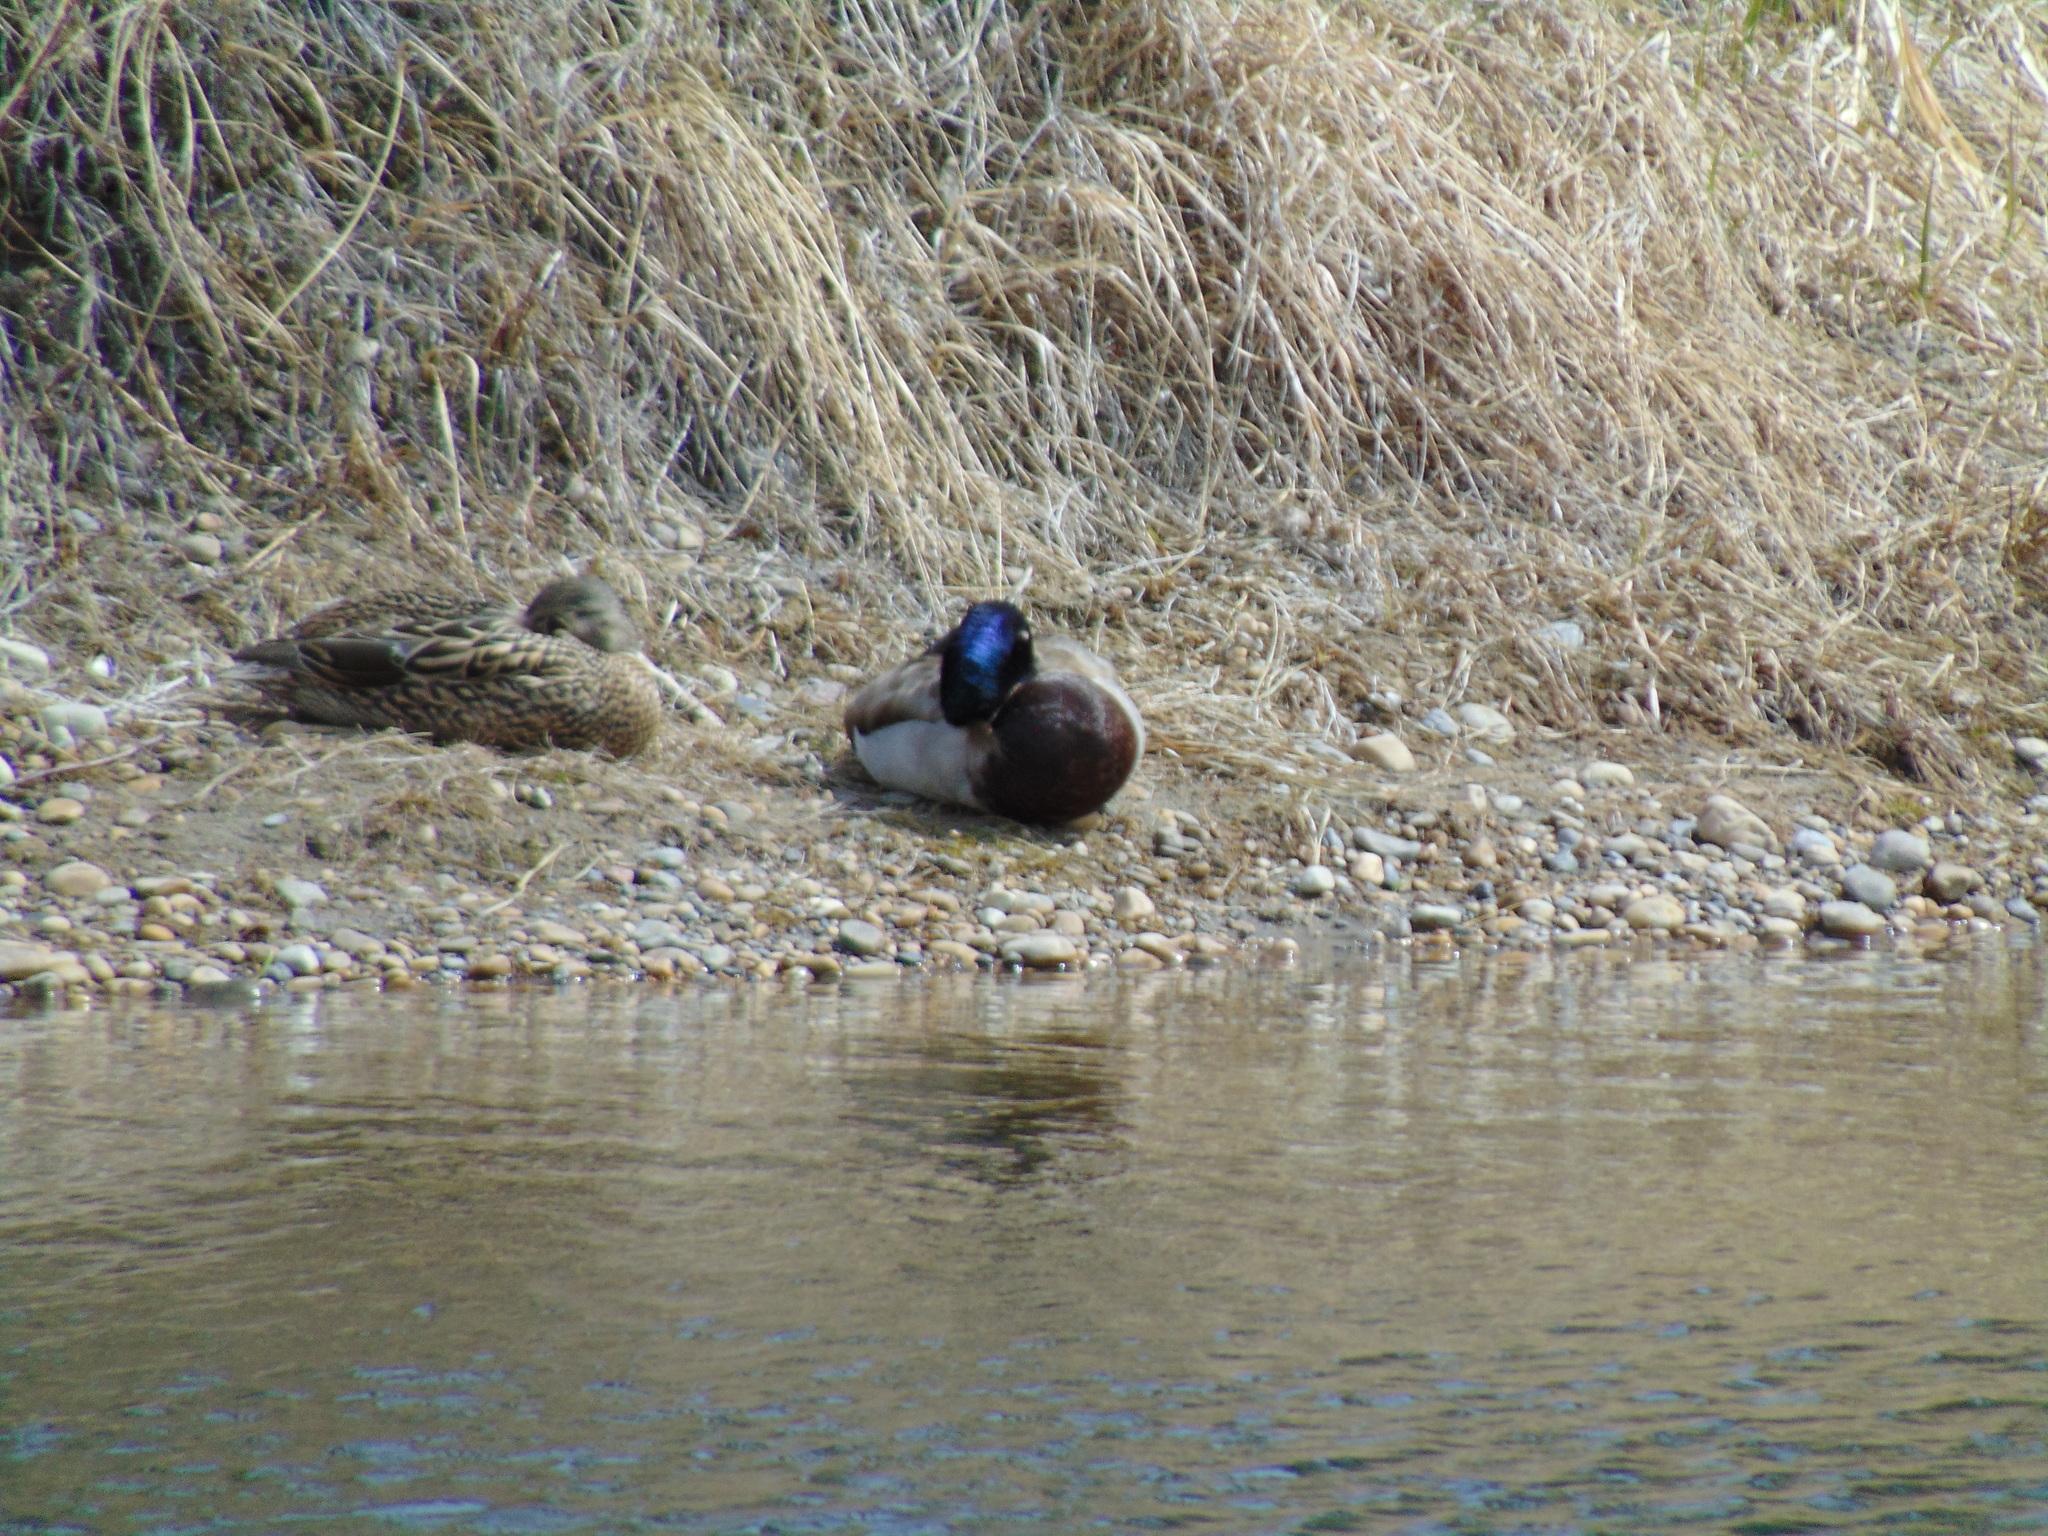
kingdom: Animalia
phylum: Chordata
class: Aves
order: Anseriformes
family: Anatidae
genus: Anas
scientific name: Anas platyrhynchos
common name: Mallard
